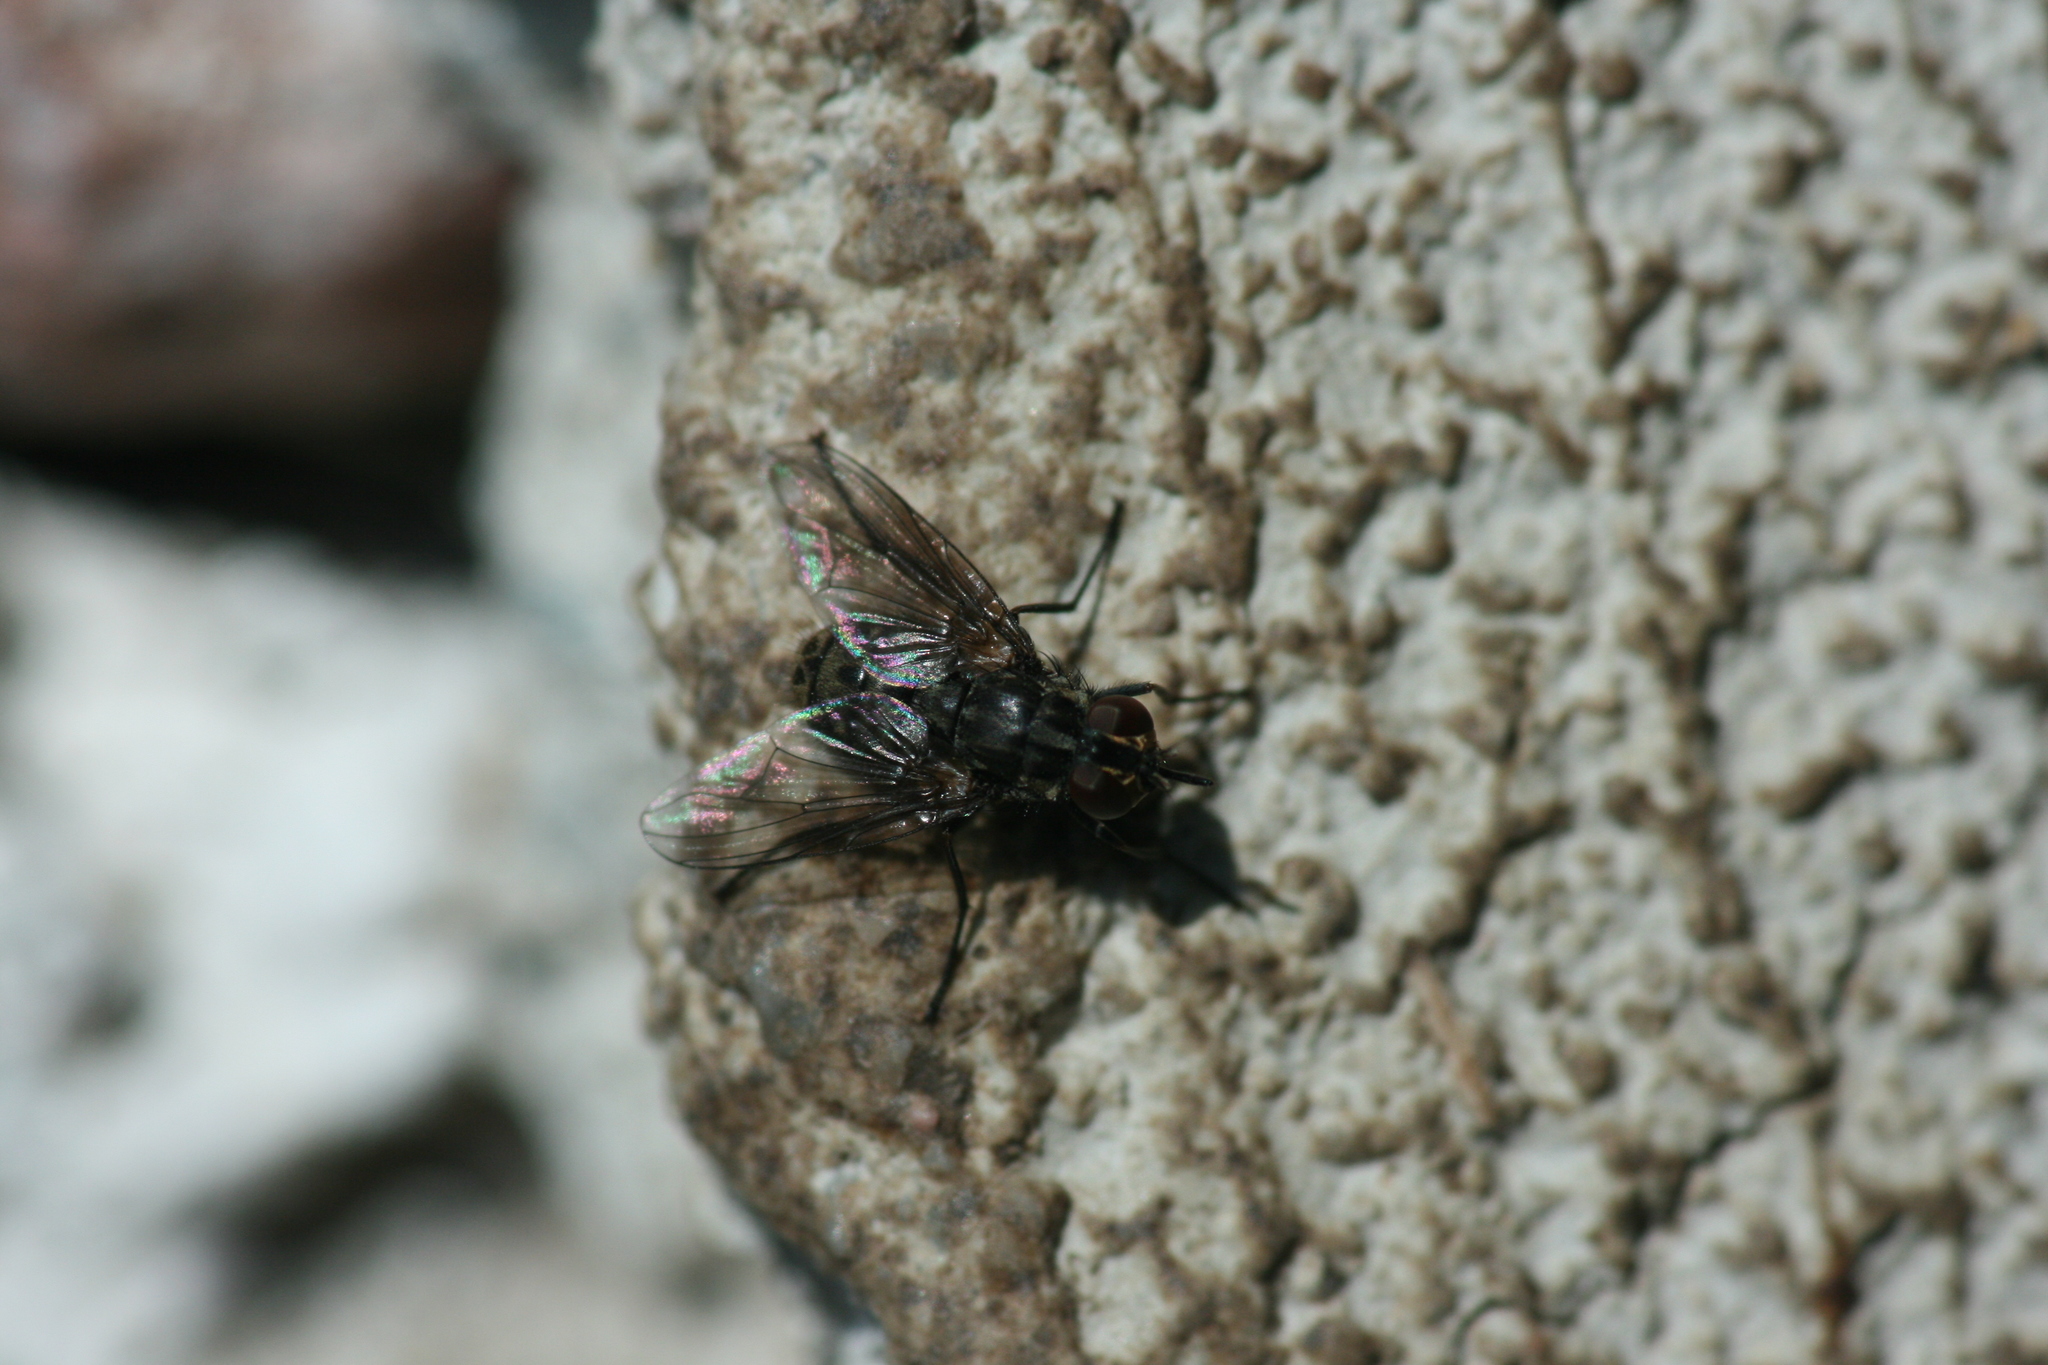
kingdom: Animalia
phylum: Arthropoda
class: Insecta
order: Diptera
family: Muscidae
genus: Stomoxys
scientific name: Stomoxys calcitrans
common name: Stable fly
